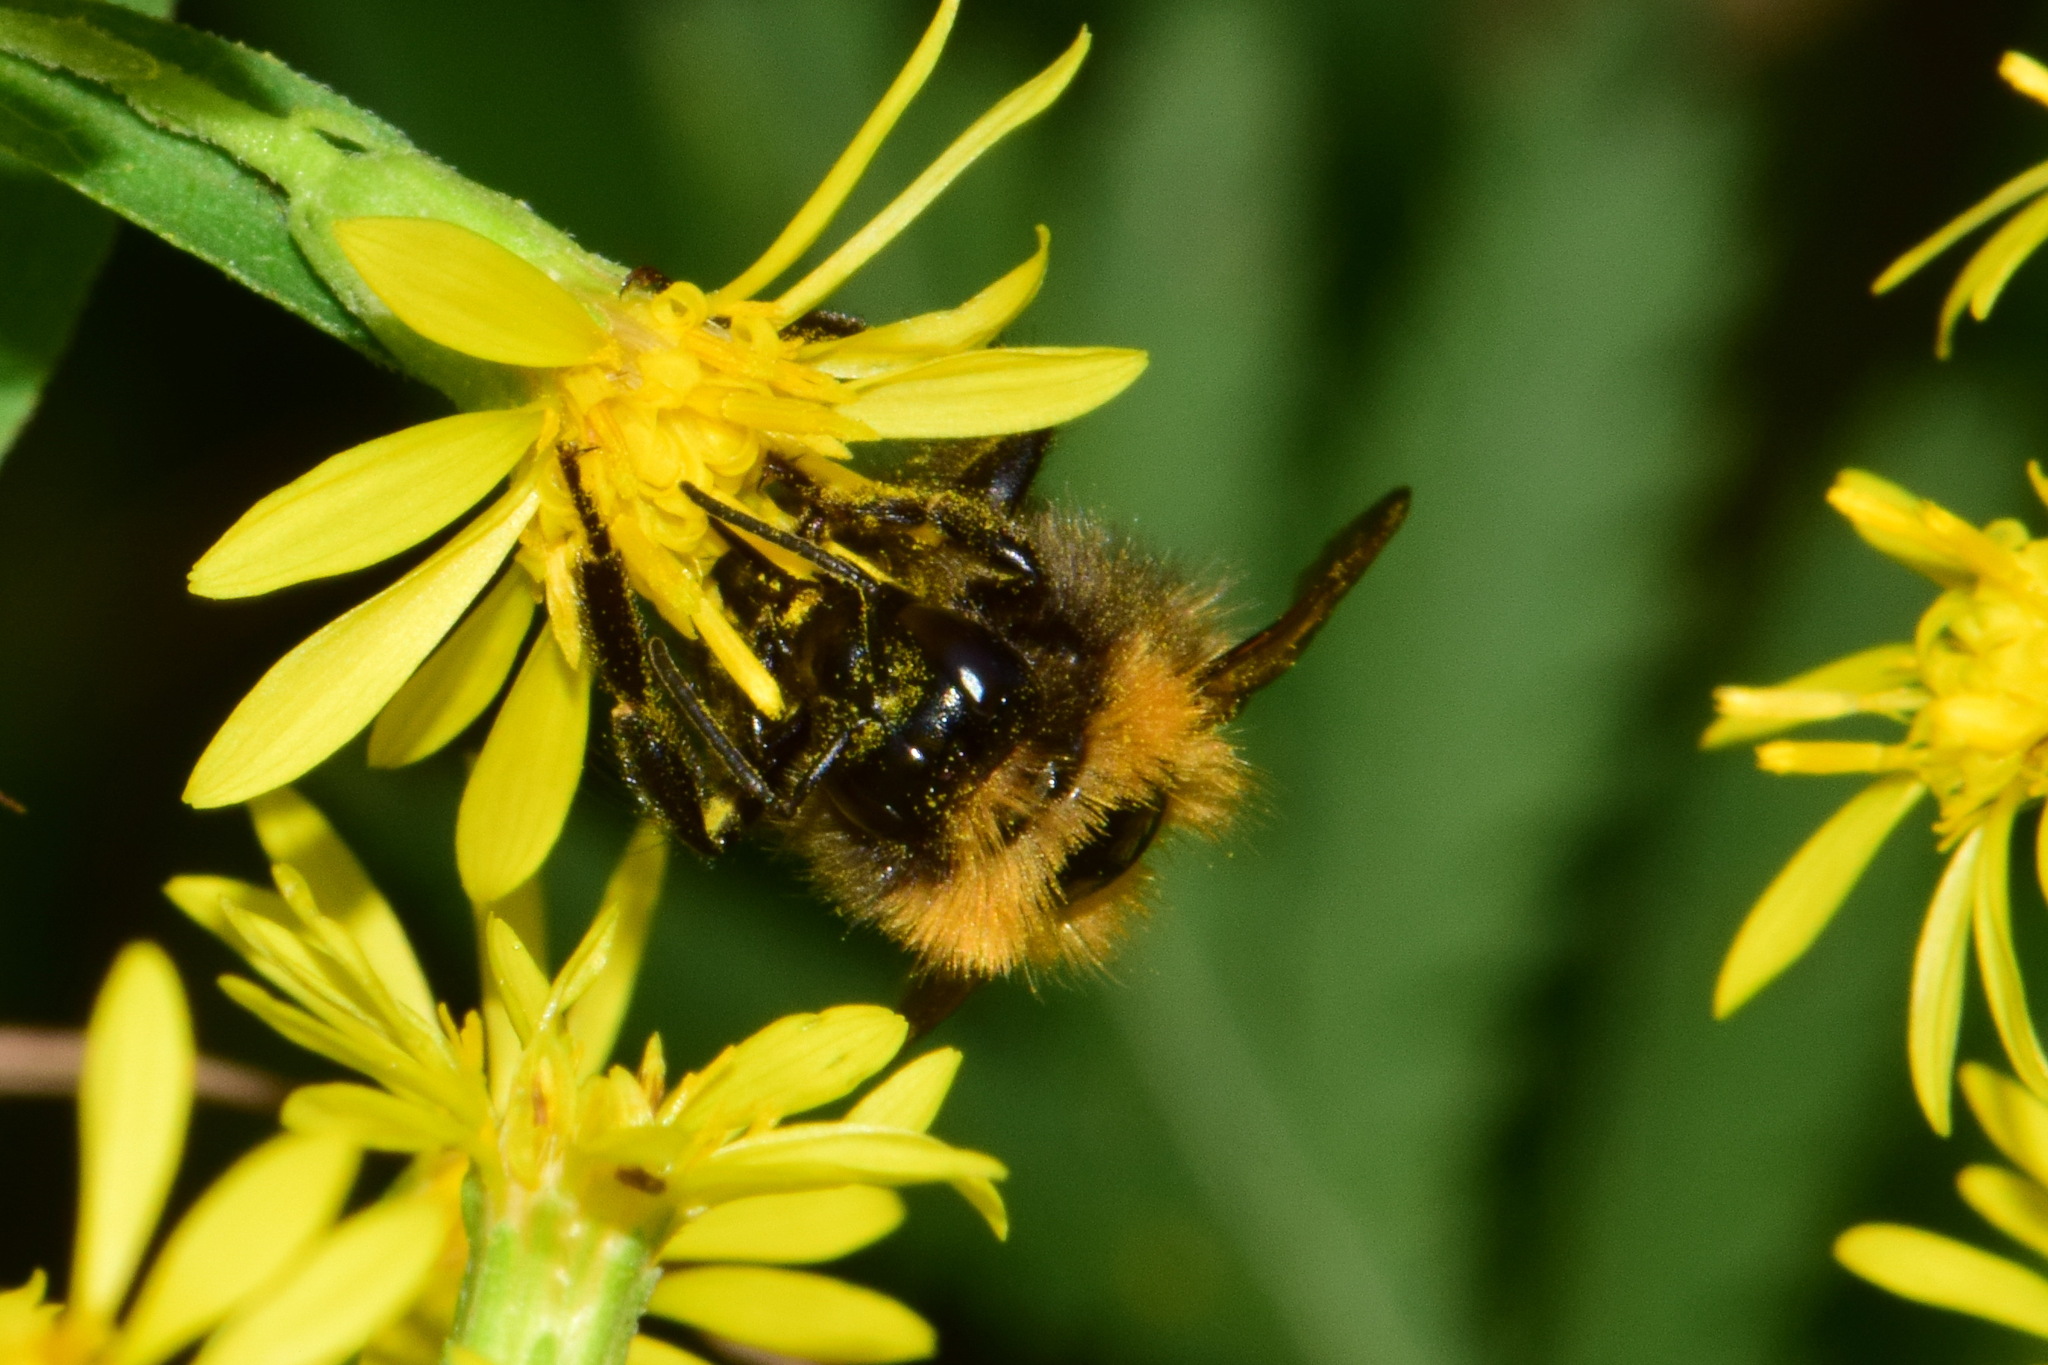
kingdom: Animalia
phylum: Arthropoda
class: Insecta
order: Hymenoptera
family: Apidae
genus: Bombus
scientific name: Bombus hypnorum
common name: New garden bumblebee
